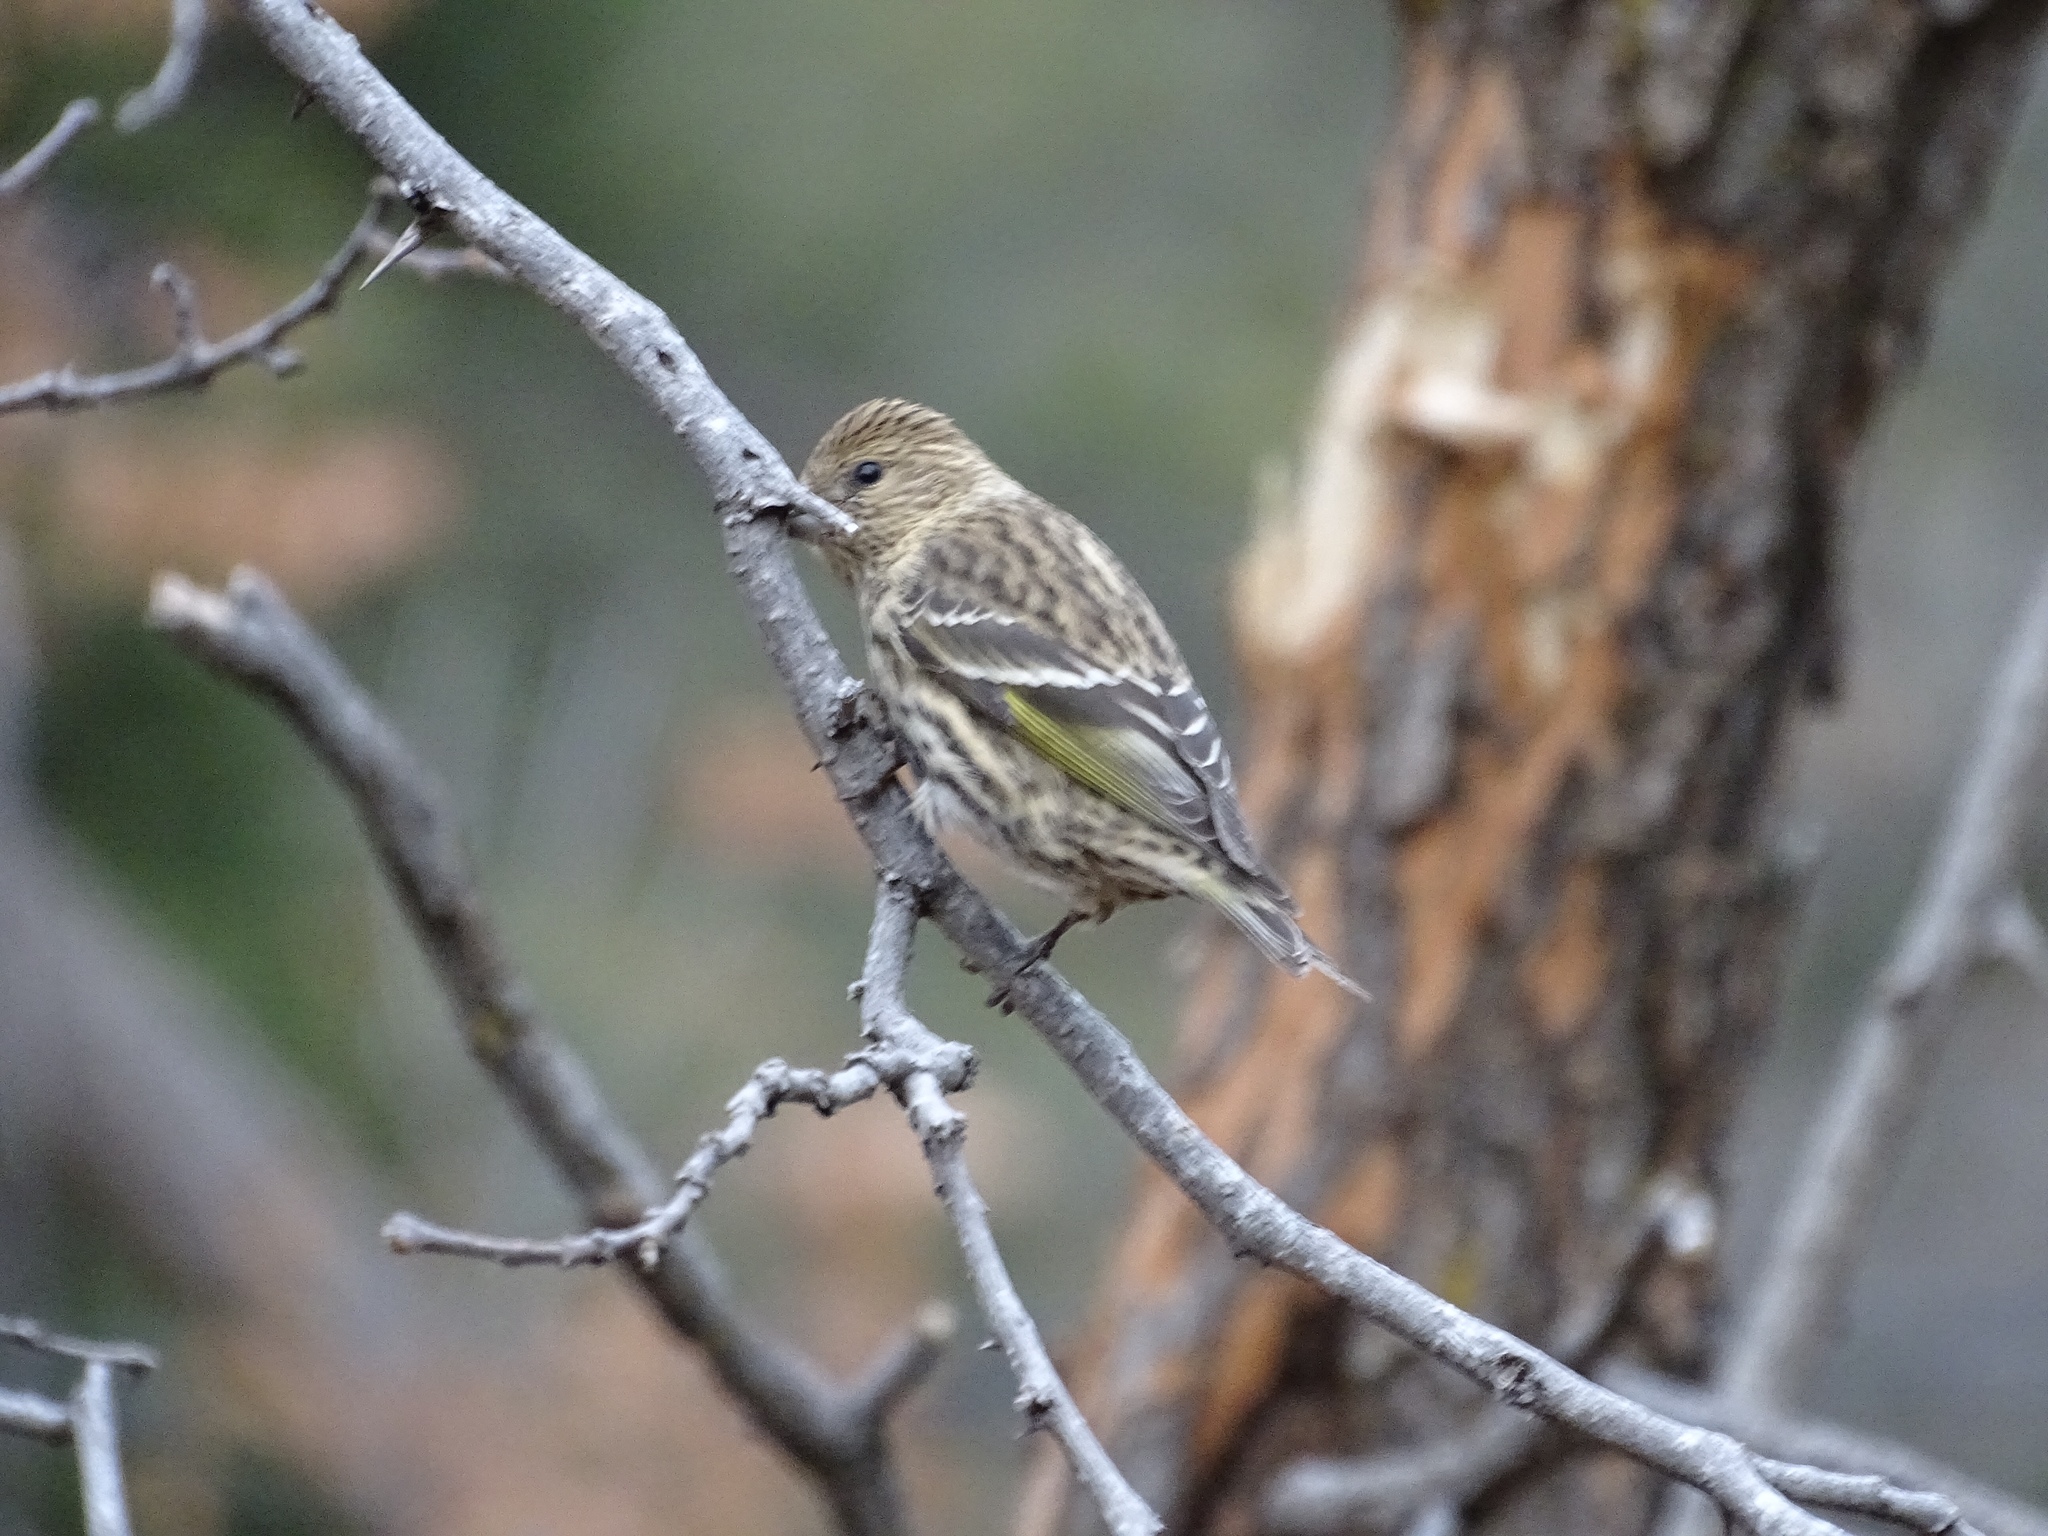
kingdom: Animalia
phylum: Chordata
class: Aves
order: Passeriformes
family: Fringillidae
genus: Spinus
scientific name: Spinus pinus
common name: Pine siskin
